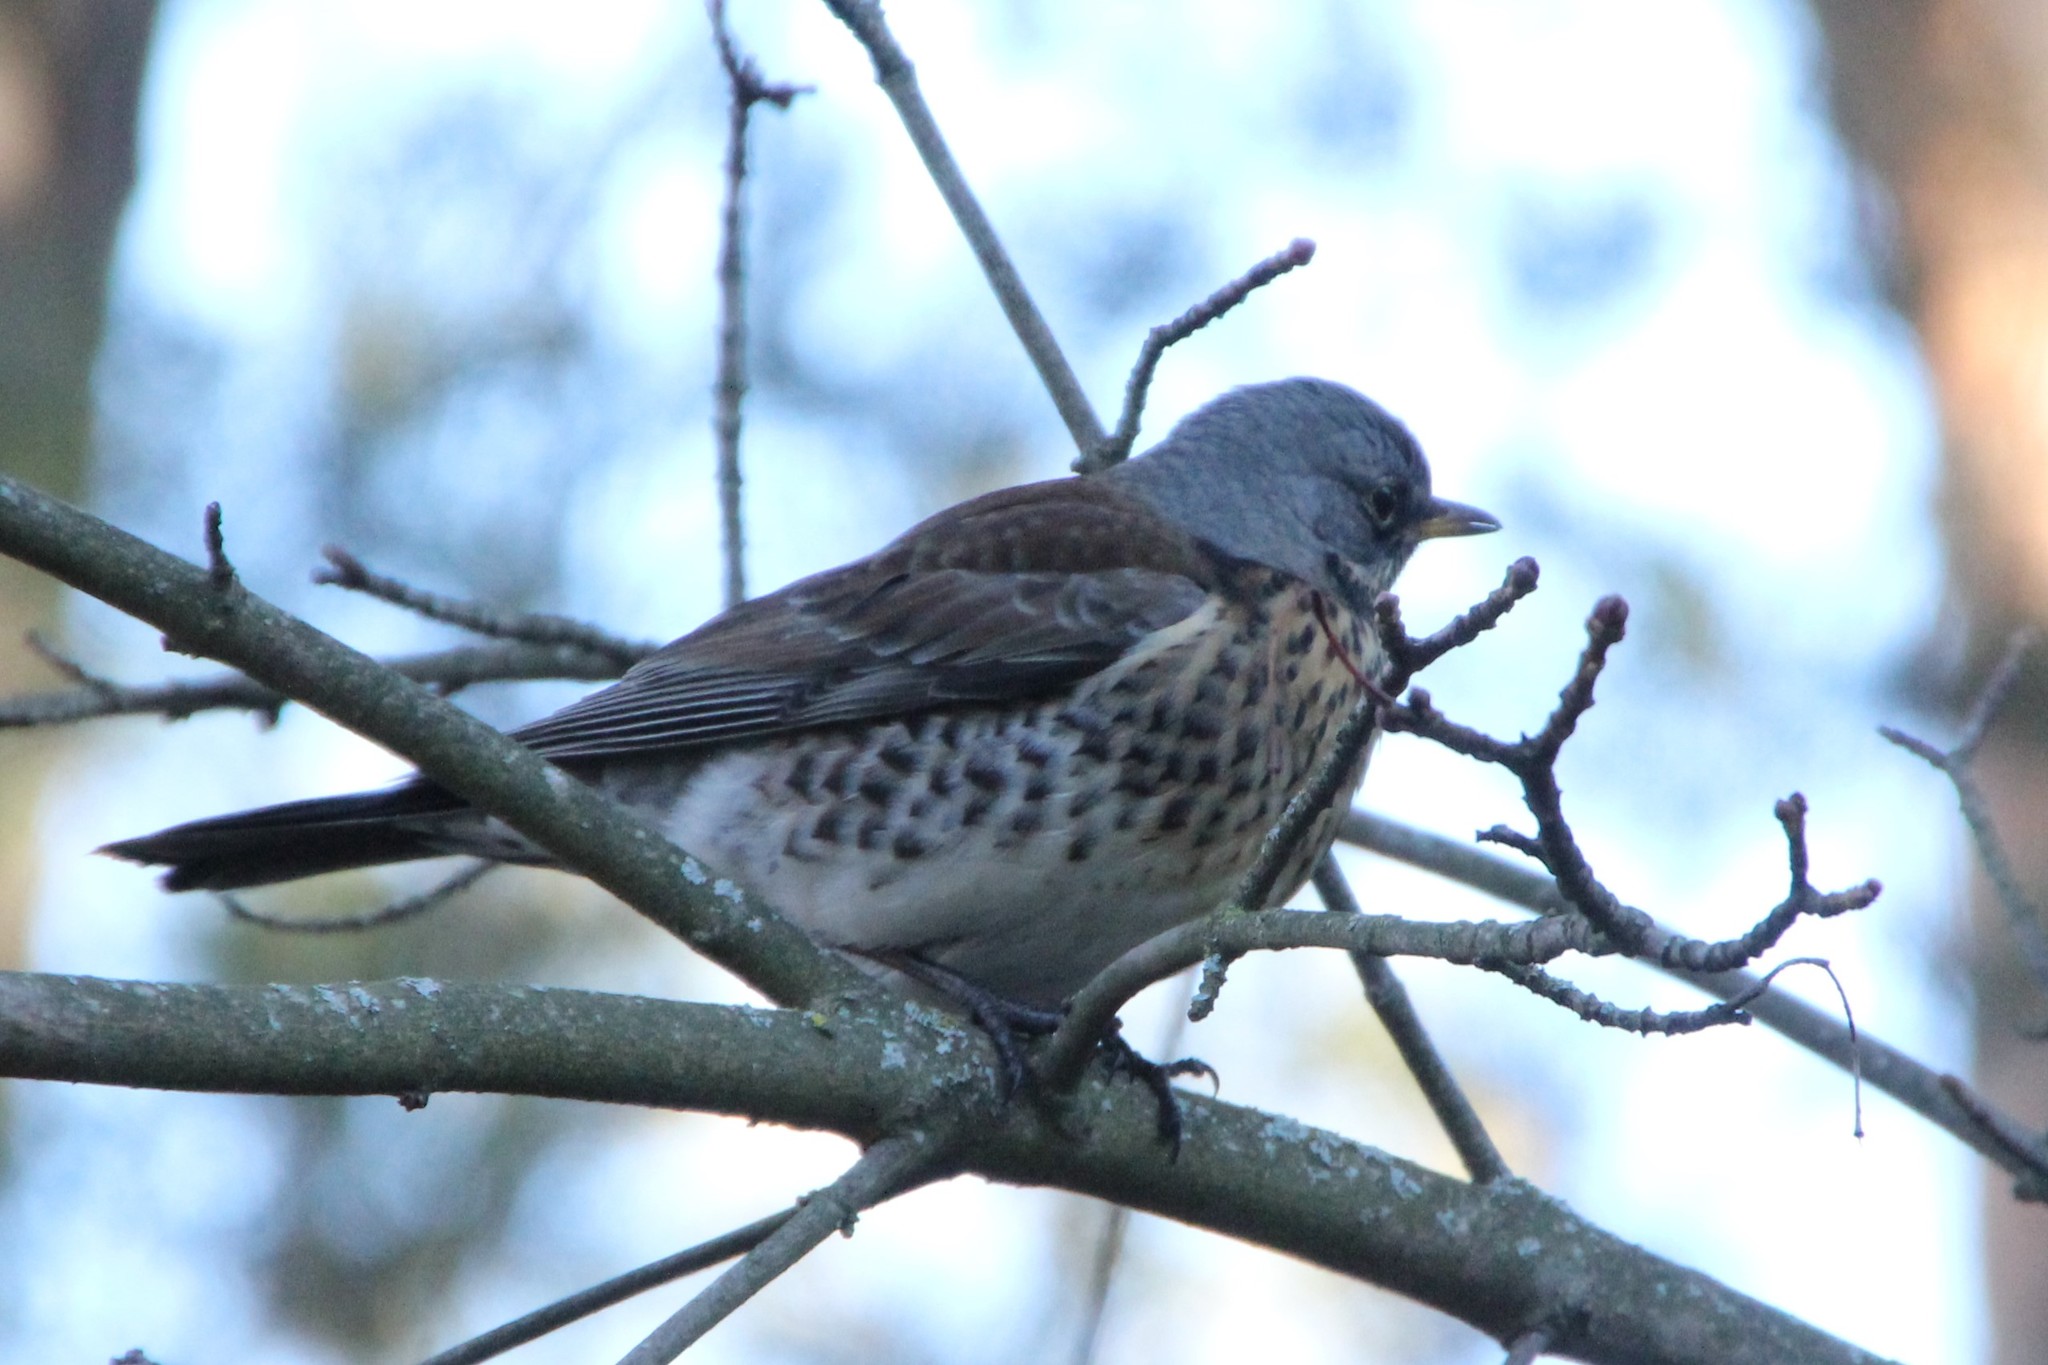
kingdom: Animalia
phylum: Chordata
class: Aves
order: Passeriformes
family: Turdidae
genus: Turdus
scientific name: Turdus pilaris
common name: Fieldfare
